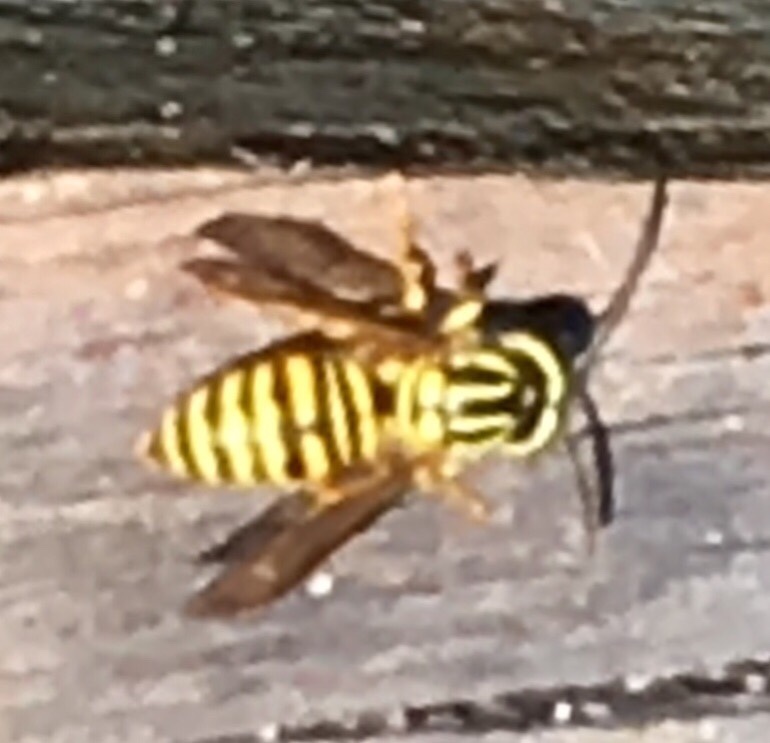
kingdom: Animalia
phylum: Arthropoda
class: Insecta
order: Hymenoptera
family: Vespidae
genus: Vespula
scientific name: Vespula squamosa
